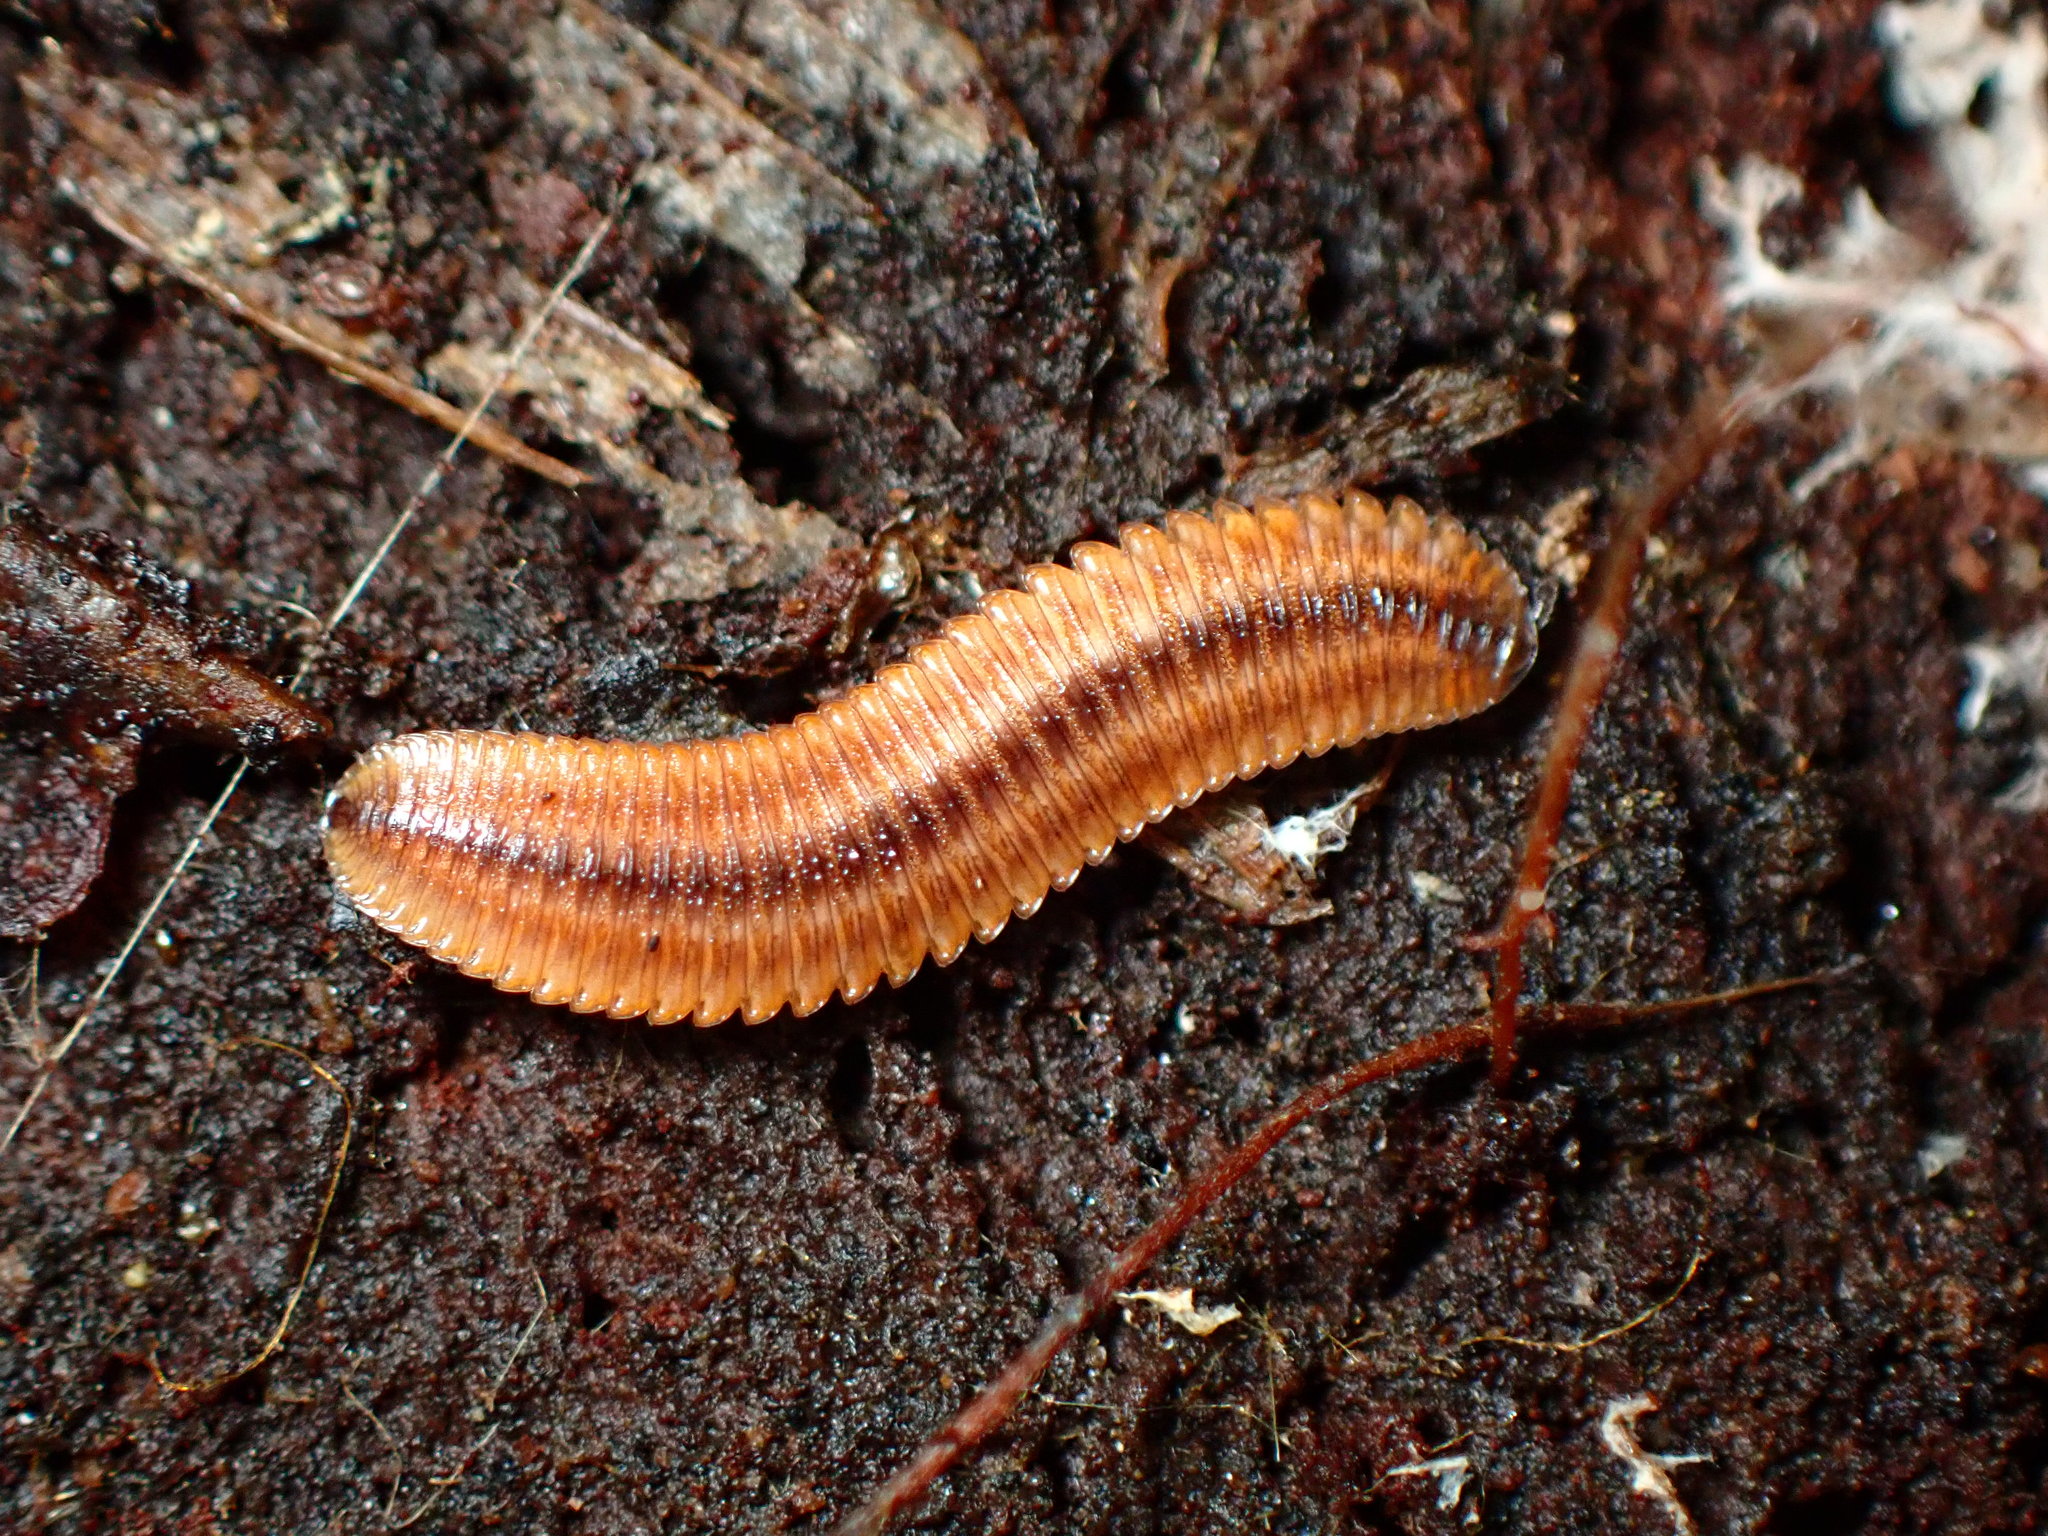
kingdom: Animalia
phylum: Arthropoda
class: Diplopoda
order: Polyzoniida
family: Hirudisomatidae
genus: Octoglena
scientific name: Octoglena bivirgatum
